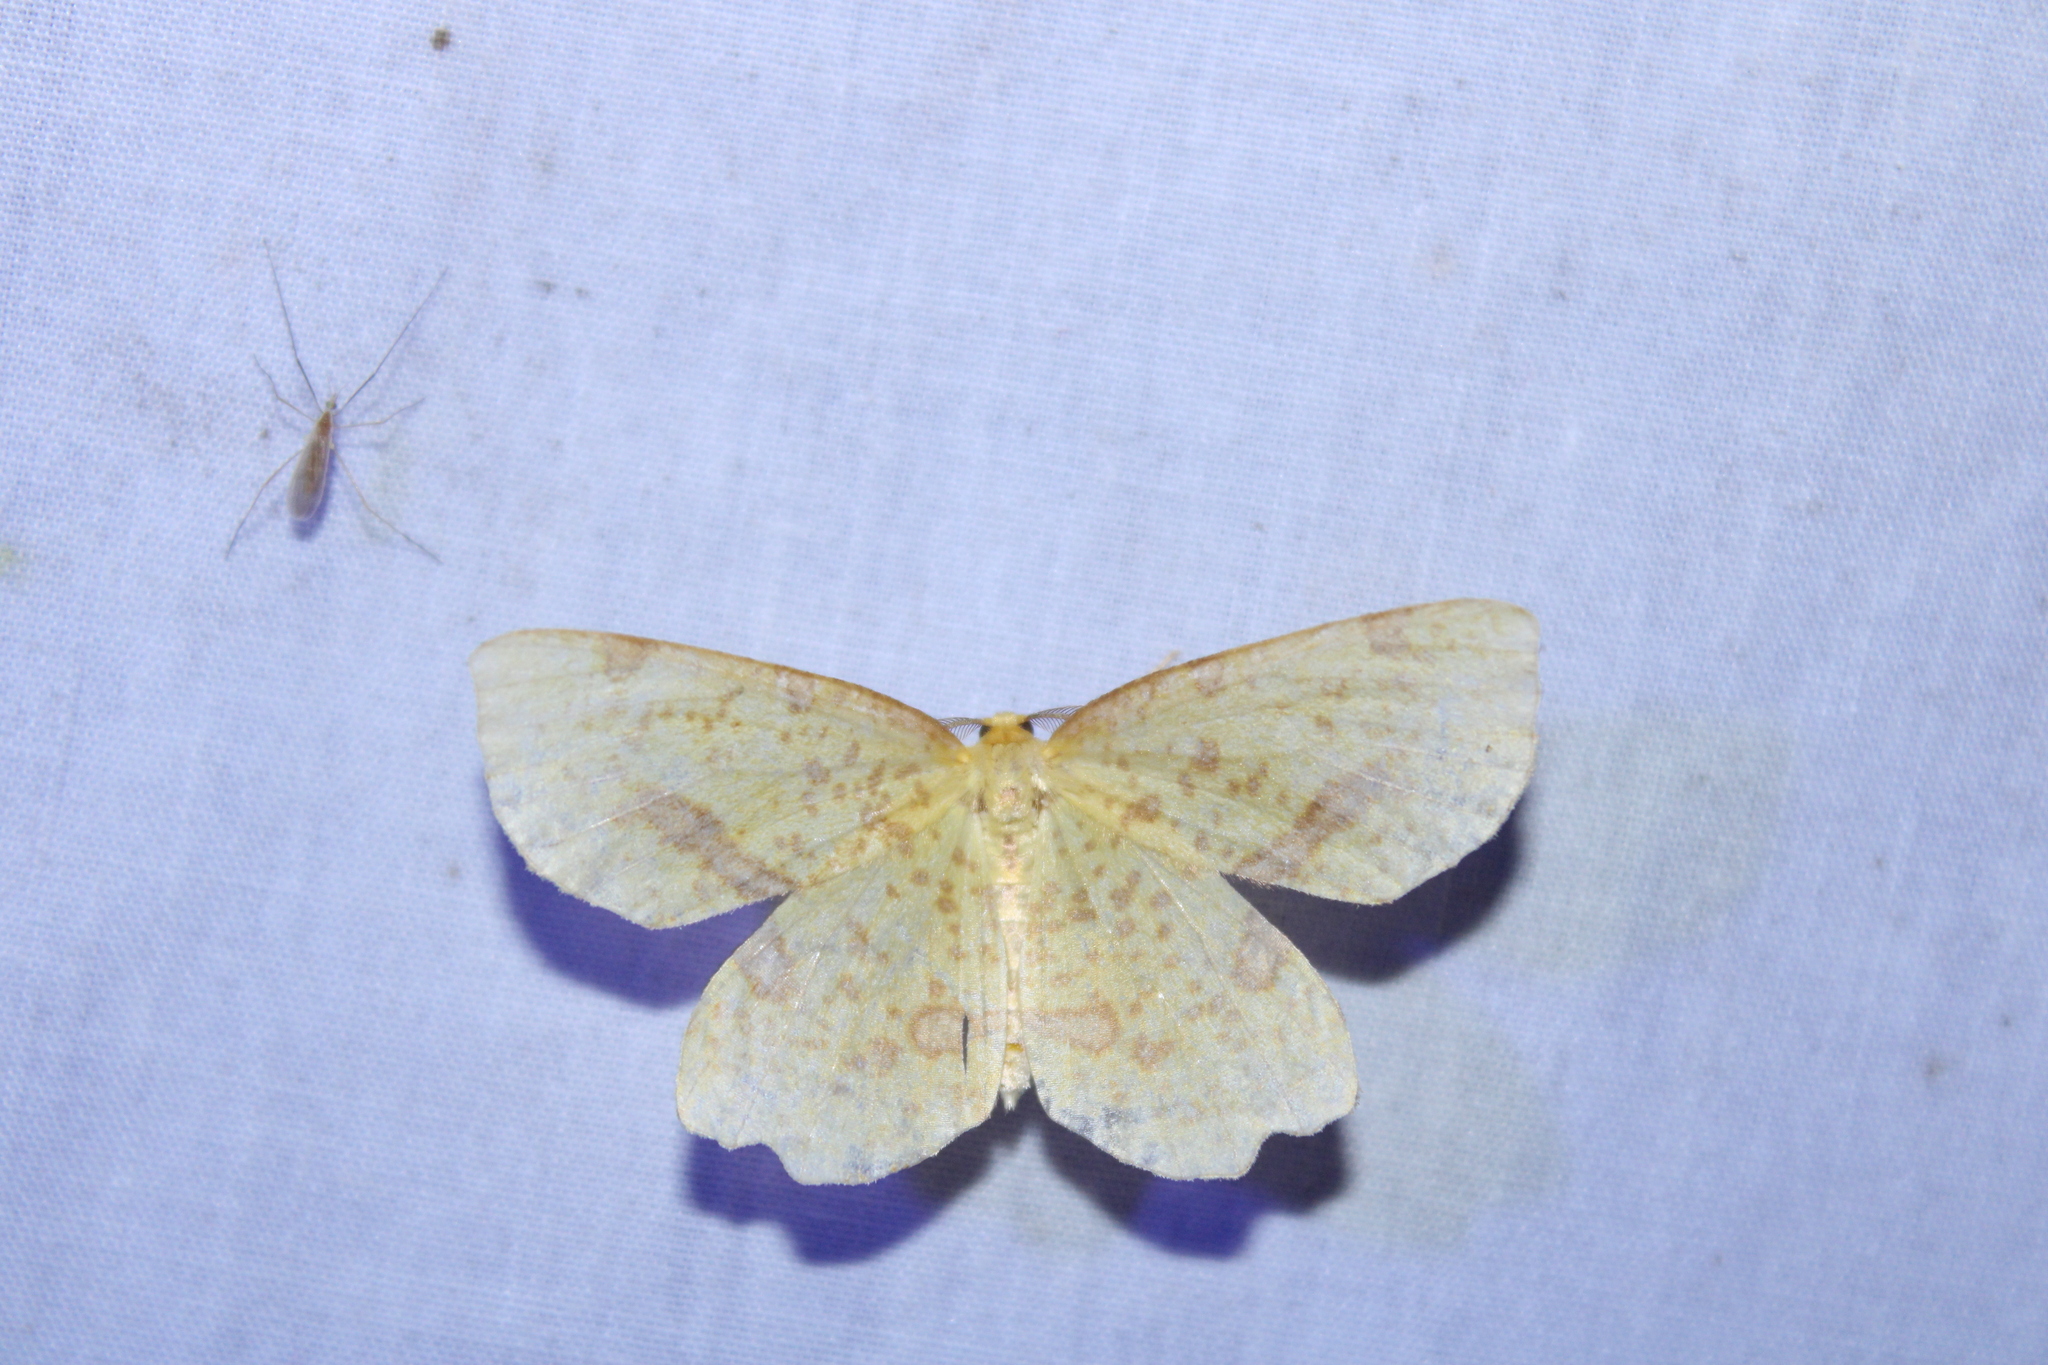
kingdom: Animalia
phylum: Arthropoda
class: Insecta
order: Lepidoptera
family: Geometridae
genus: Xanthotype
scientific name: Xanthotype
